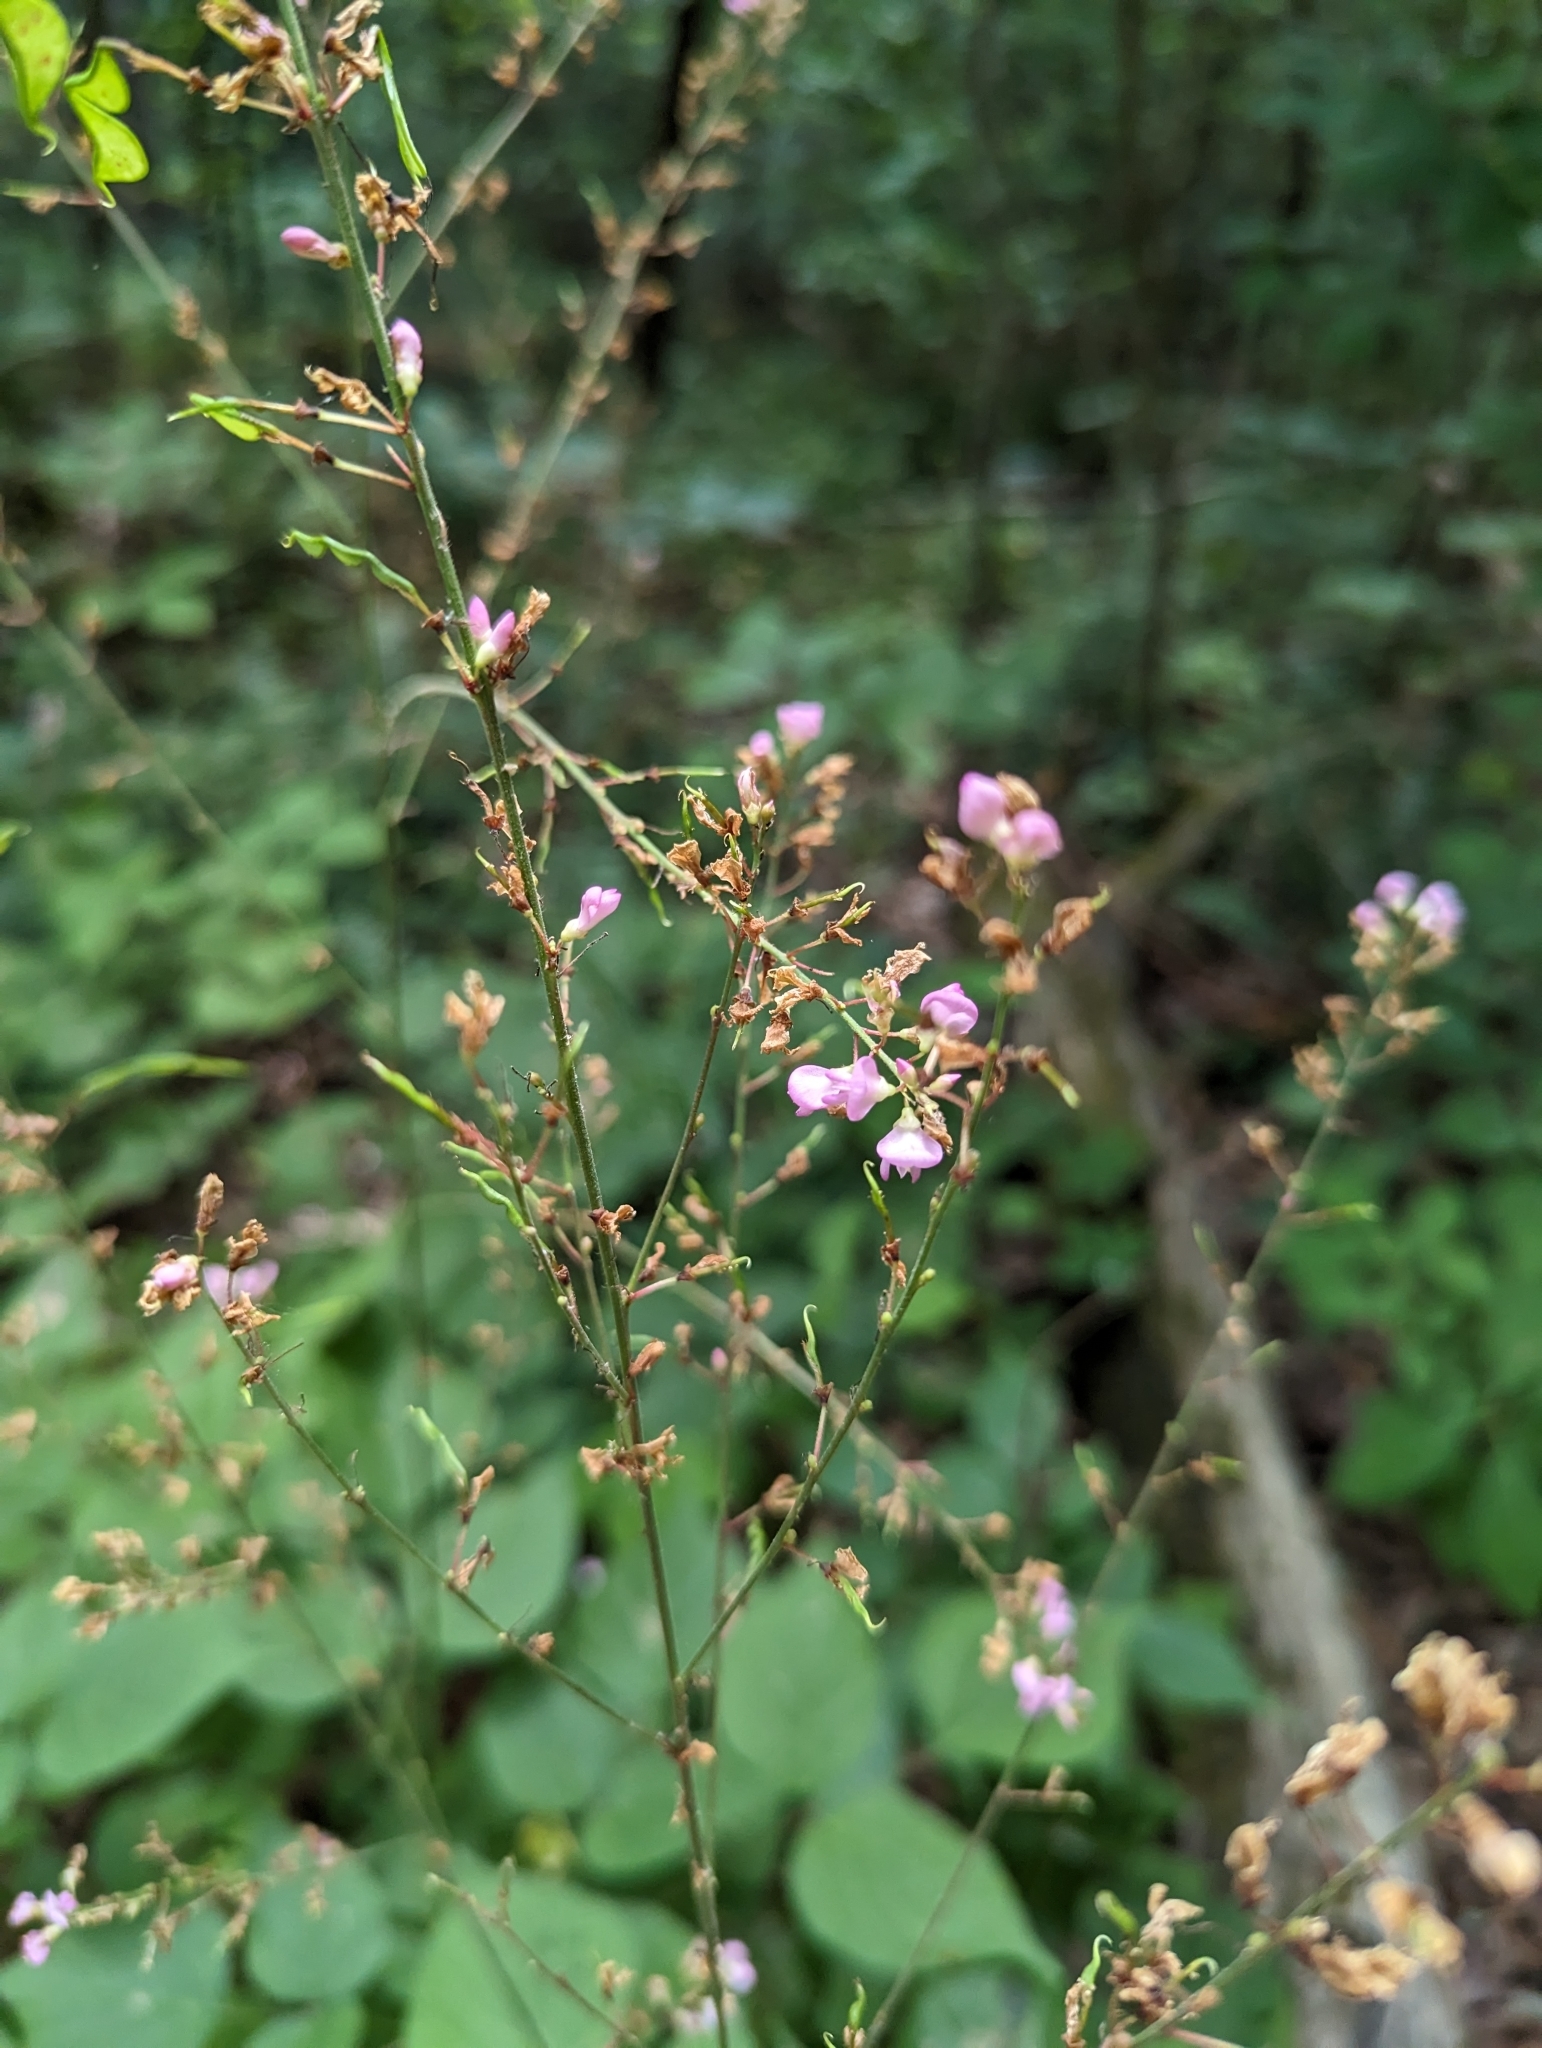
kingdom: Plantae
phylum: Tracheophyta
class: Magnoliopsida
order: Fabales
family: Fabaceae
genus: Hylodesmum
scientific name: Hylodesmum glutinosum
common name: Clustered-leaved tick-trefoil
